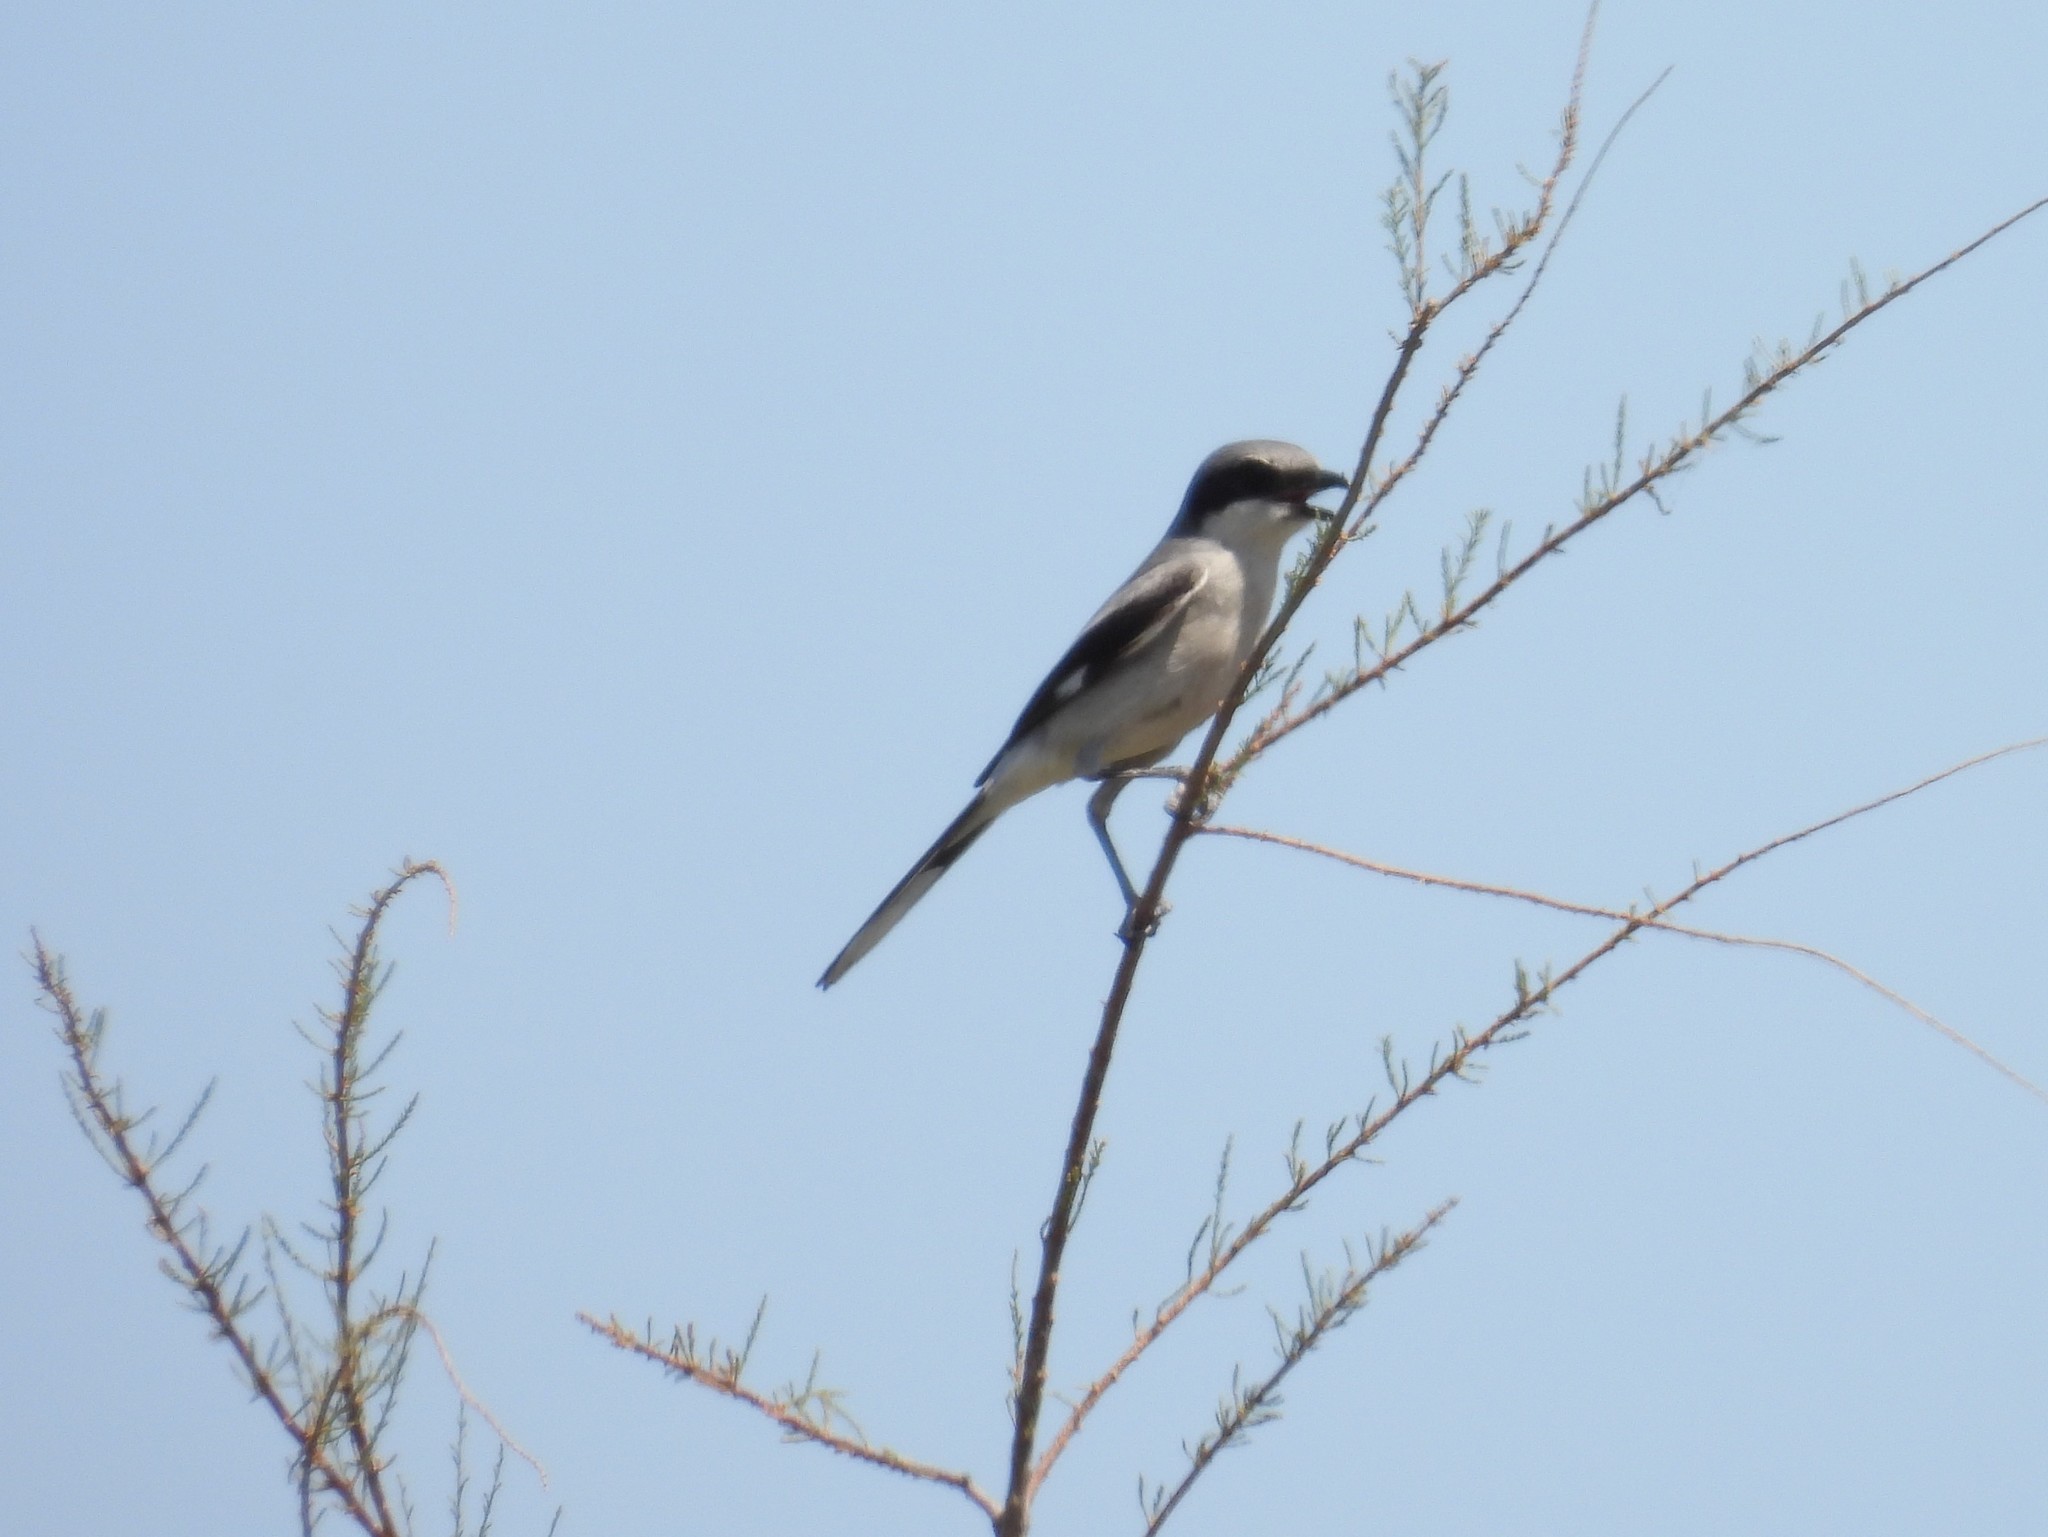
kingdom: Animalia
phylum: Chordata
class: Aves
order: Passeriformes
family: Laniidae
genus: Lanius
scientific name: Lanius ludovicianus
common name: Loggerhead shrike
